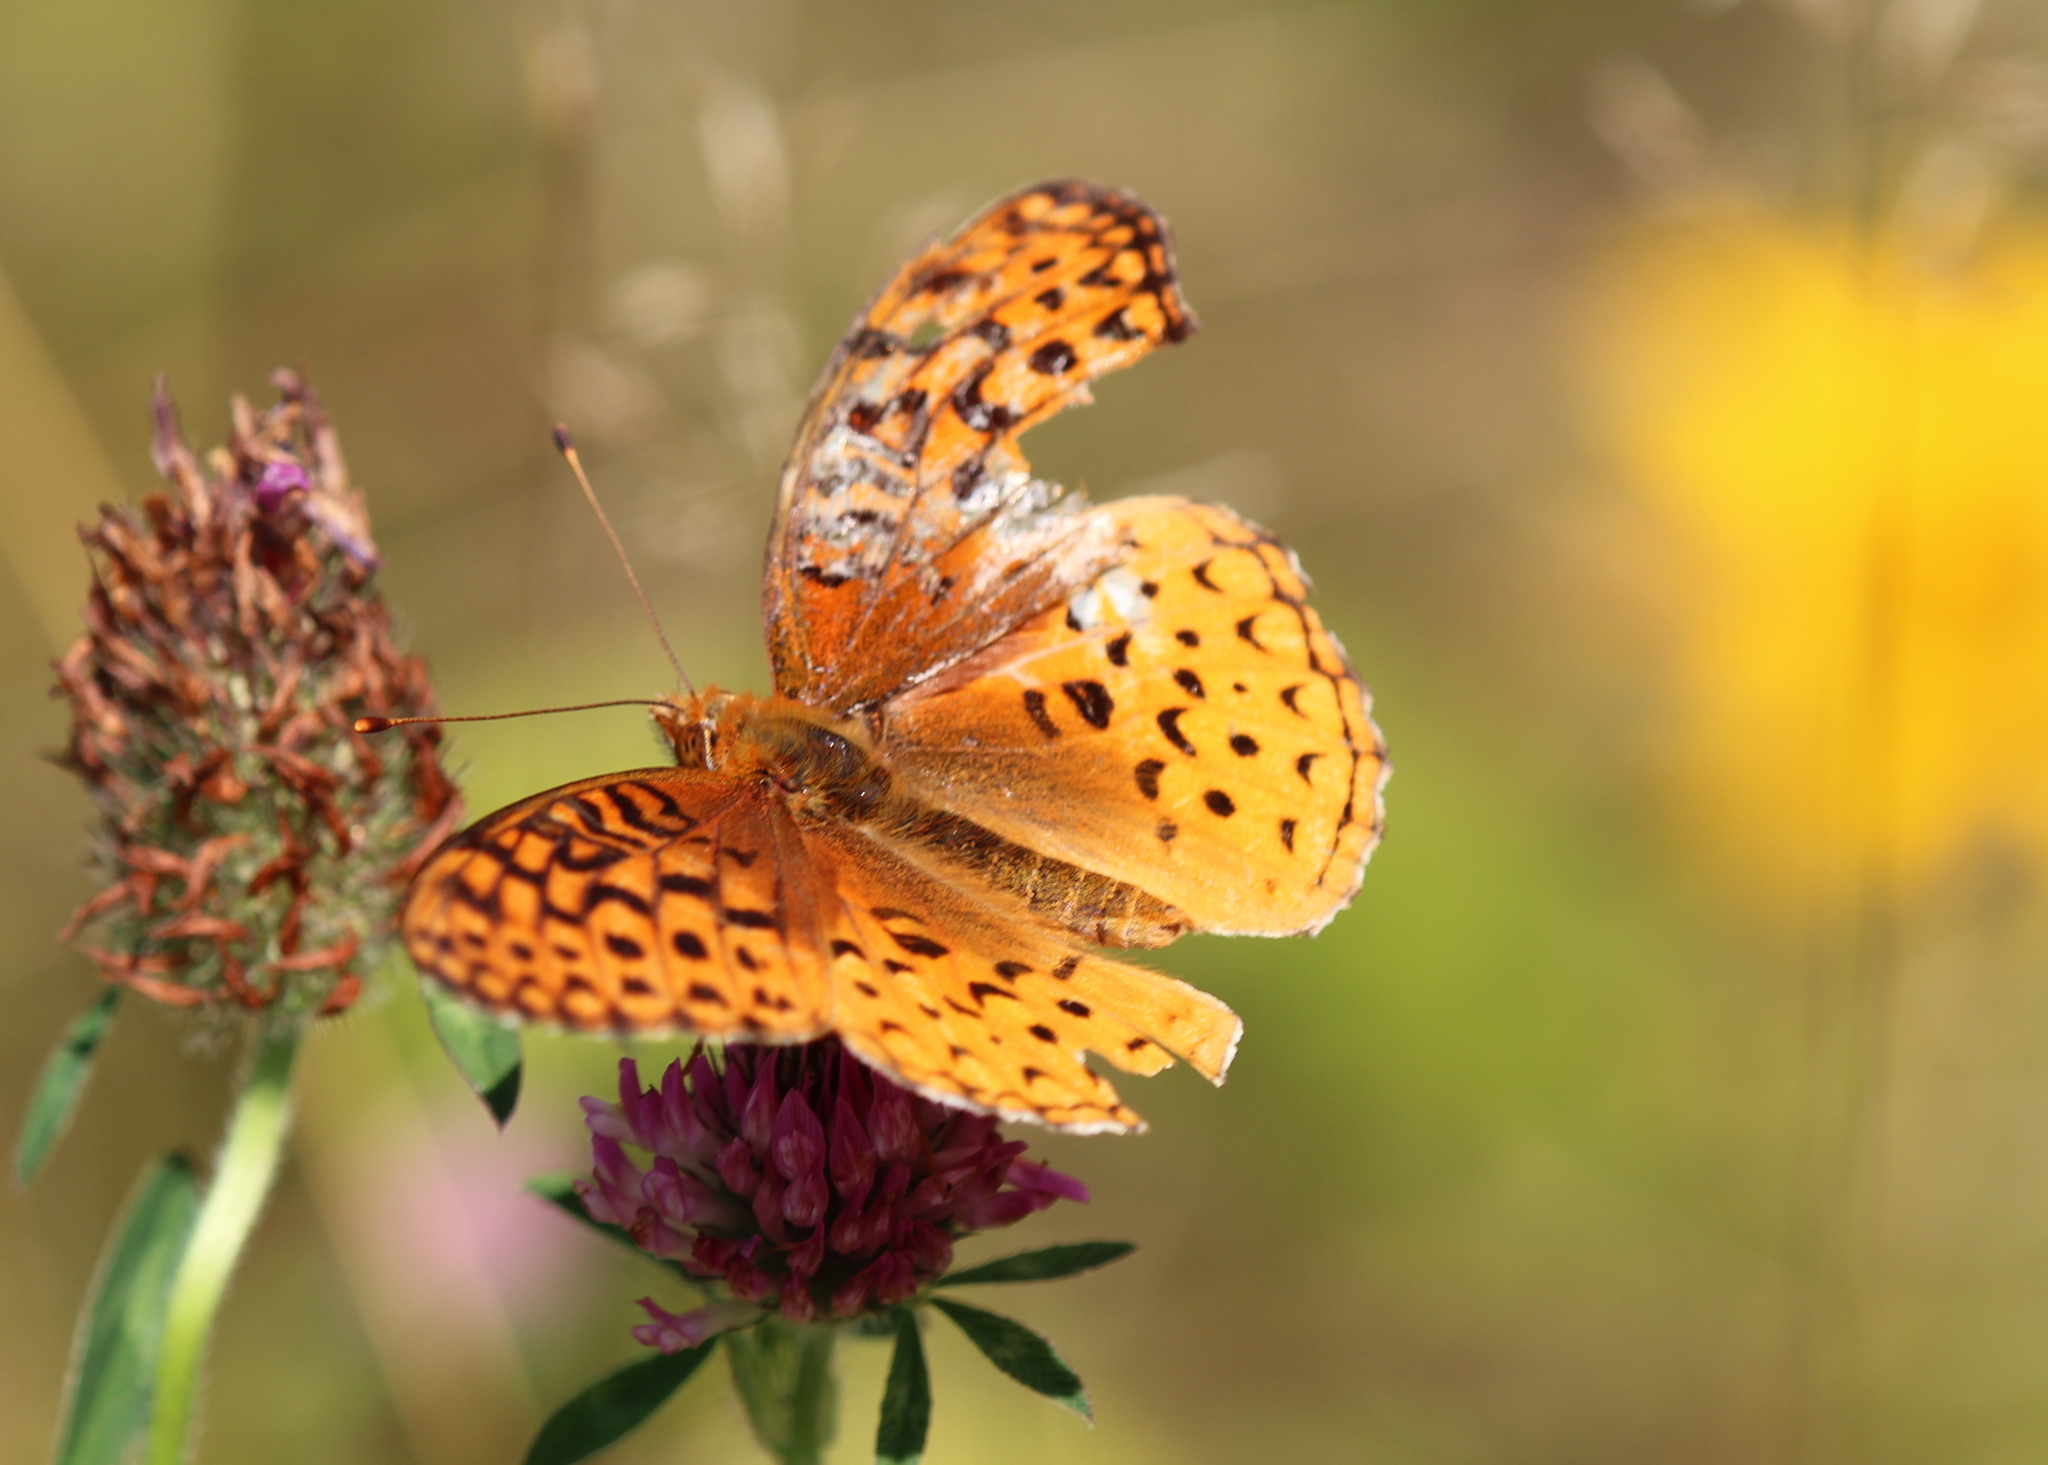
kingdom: Animalia
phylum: Arthropoda
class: Insecta
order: Lepidoptera
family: Nymphalidae
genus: Speyeria
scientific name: Speyeria cybele
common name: Great spangled fritillary
